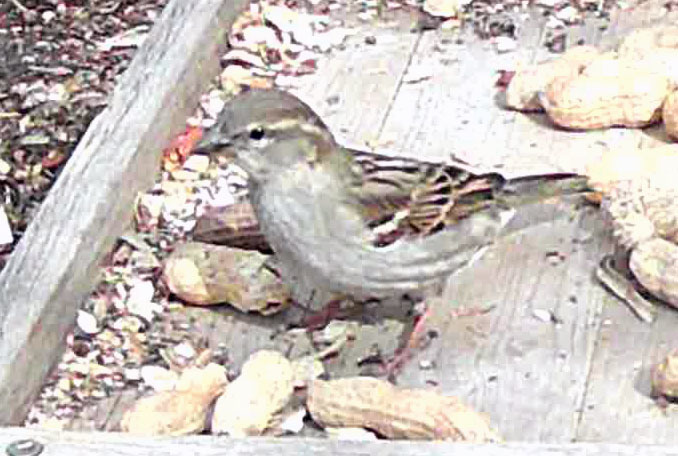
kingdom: Animalia
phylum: Chordata
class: Aves
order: Passeriformes
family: Passeridae
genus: Passer
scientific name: Passer domesticus
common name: House sparrow
